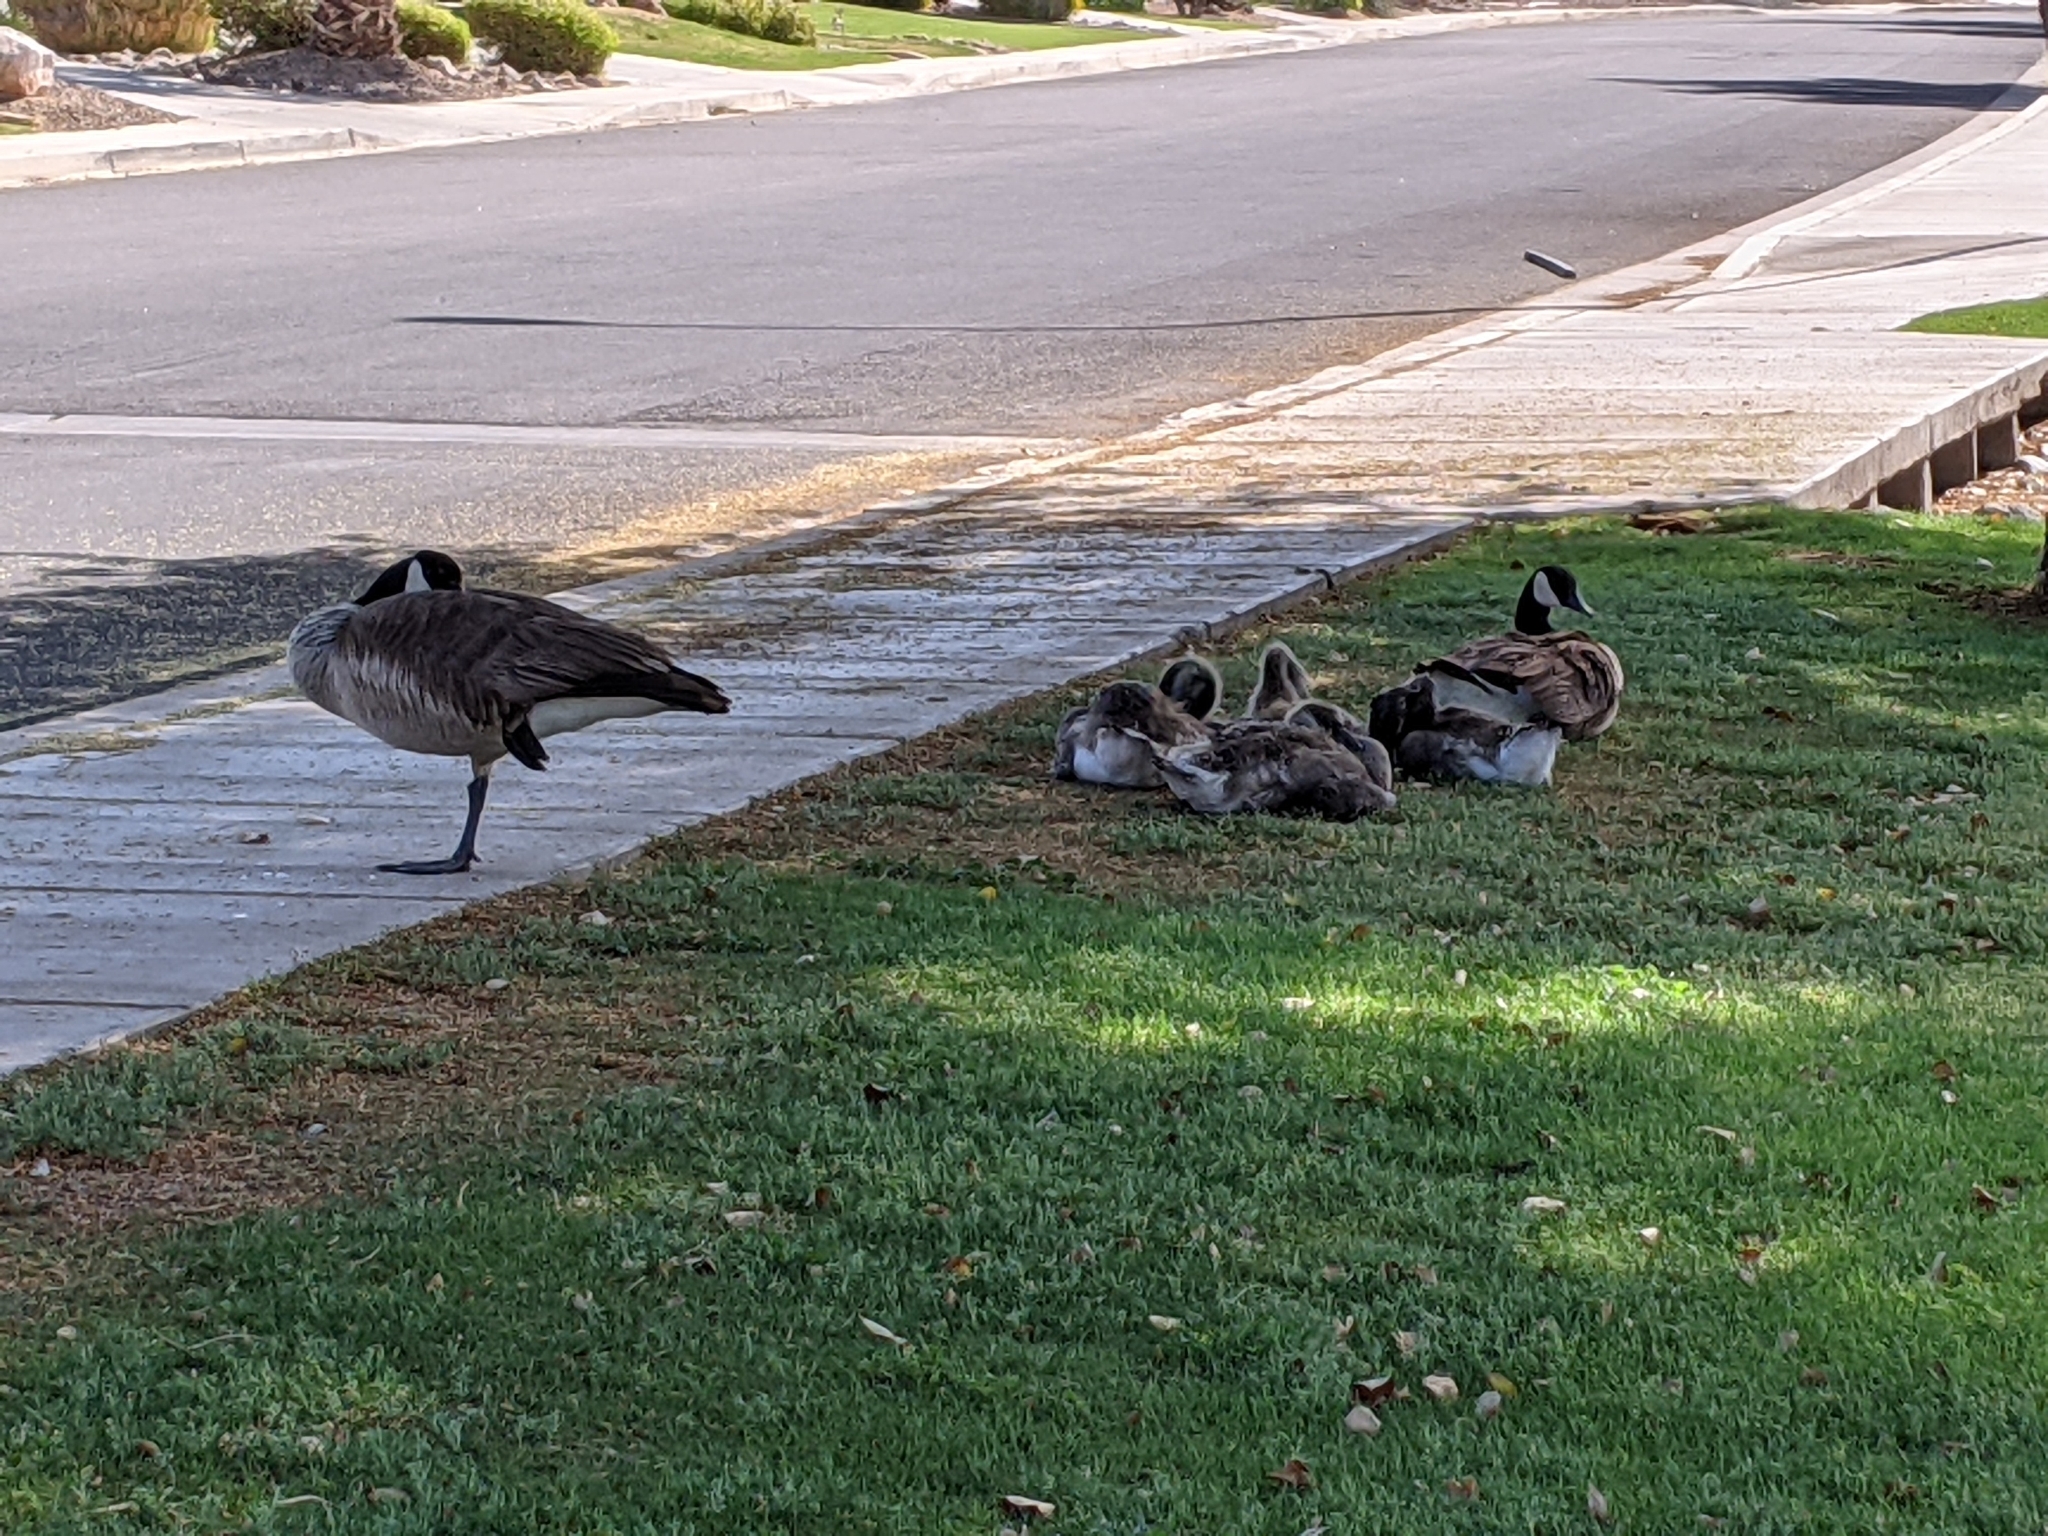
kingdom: Animalia
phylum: Chordata
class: Aves
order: Anseriformes
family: Anatidae
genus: Branta
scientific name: Branta canadensis
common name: Canada goose
